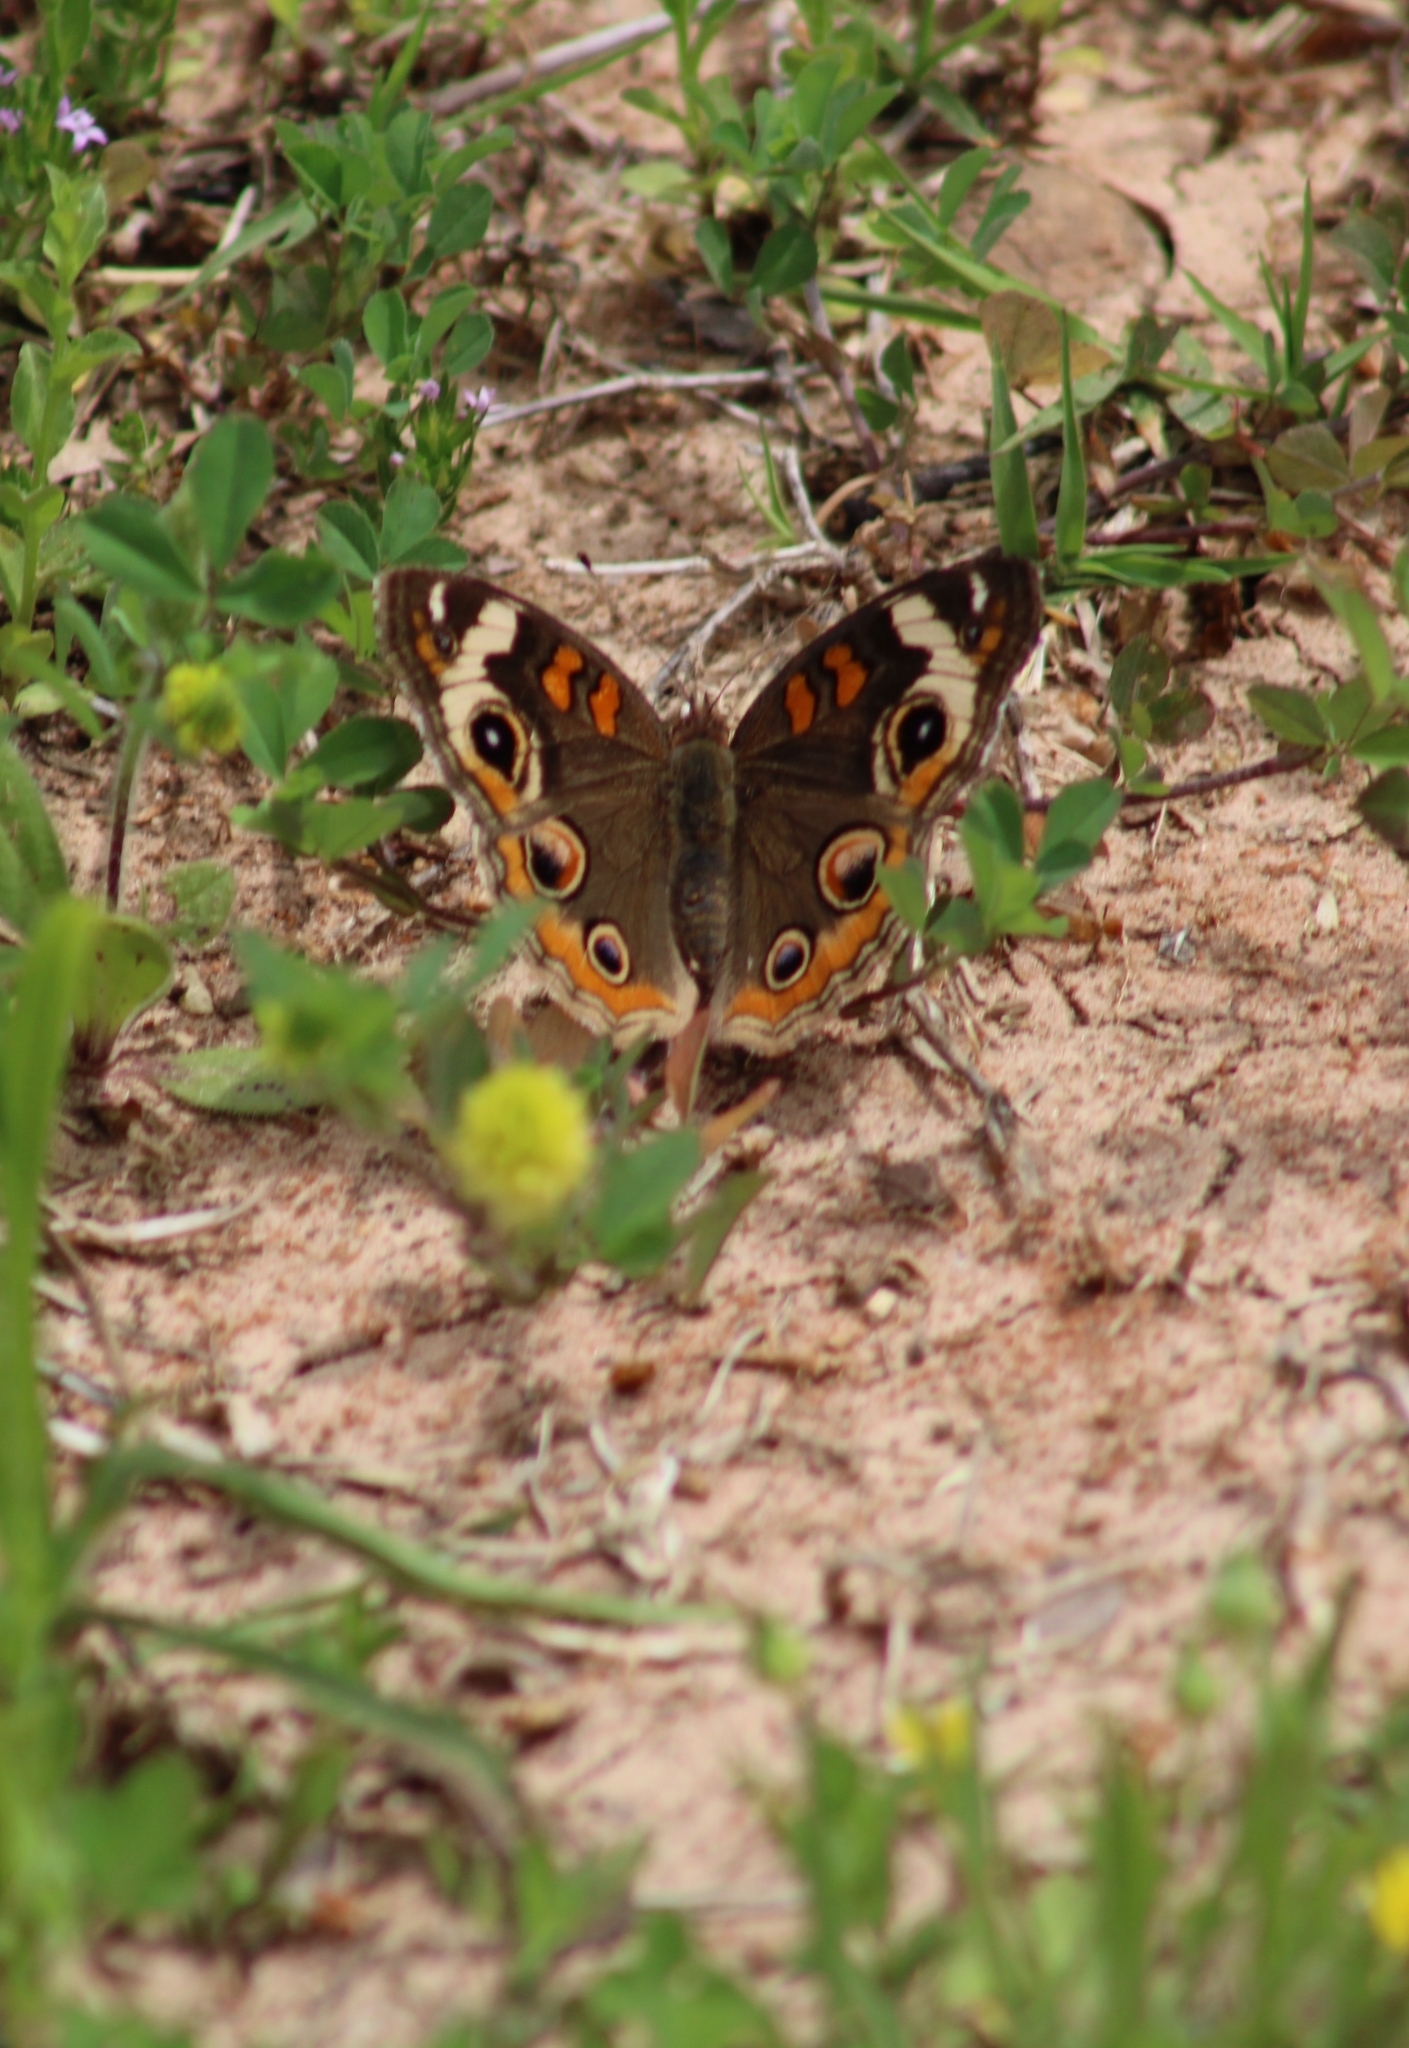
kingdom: Animalia
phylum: Arthropoda
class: Insecta
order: Lepidoptera
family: Nymphalidae
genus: Junonia
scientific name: Junonia coenia
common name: Common buckeye
